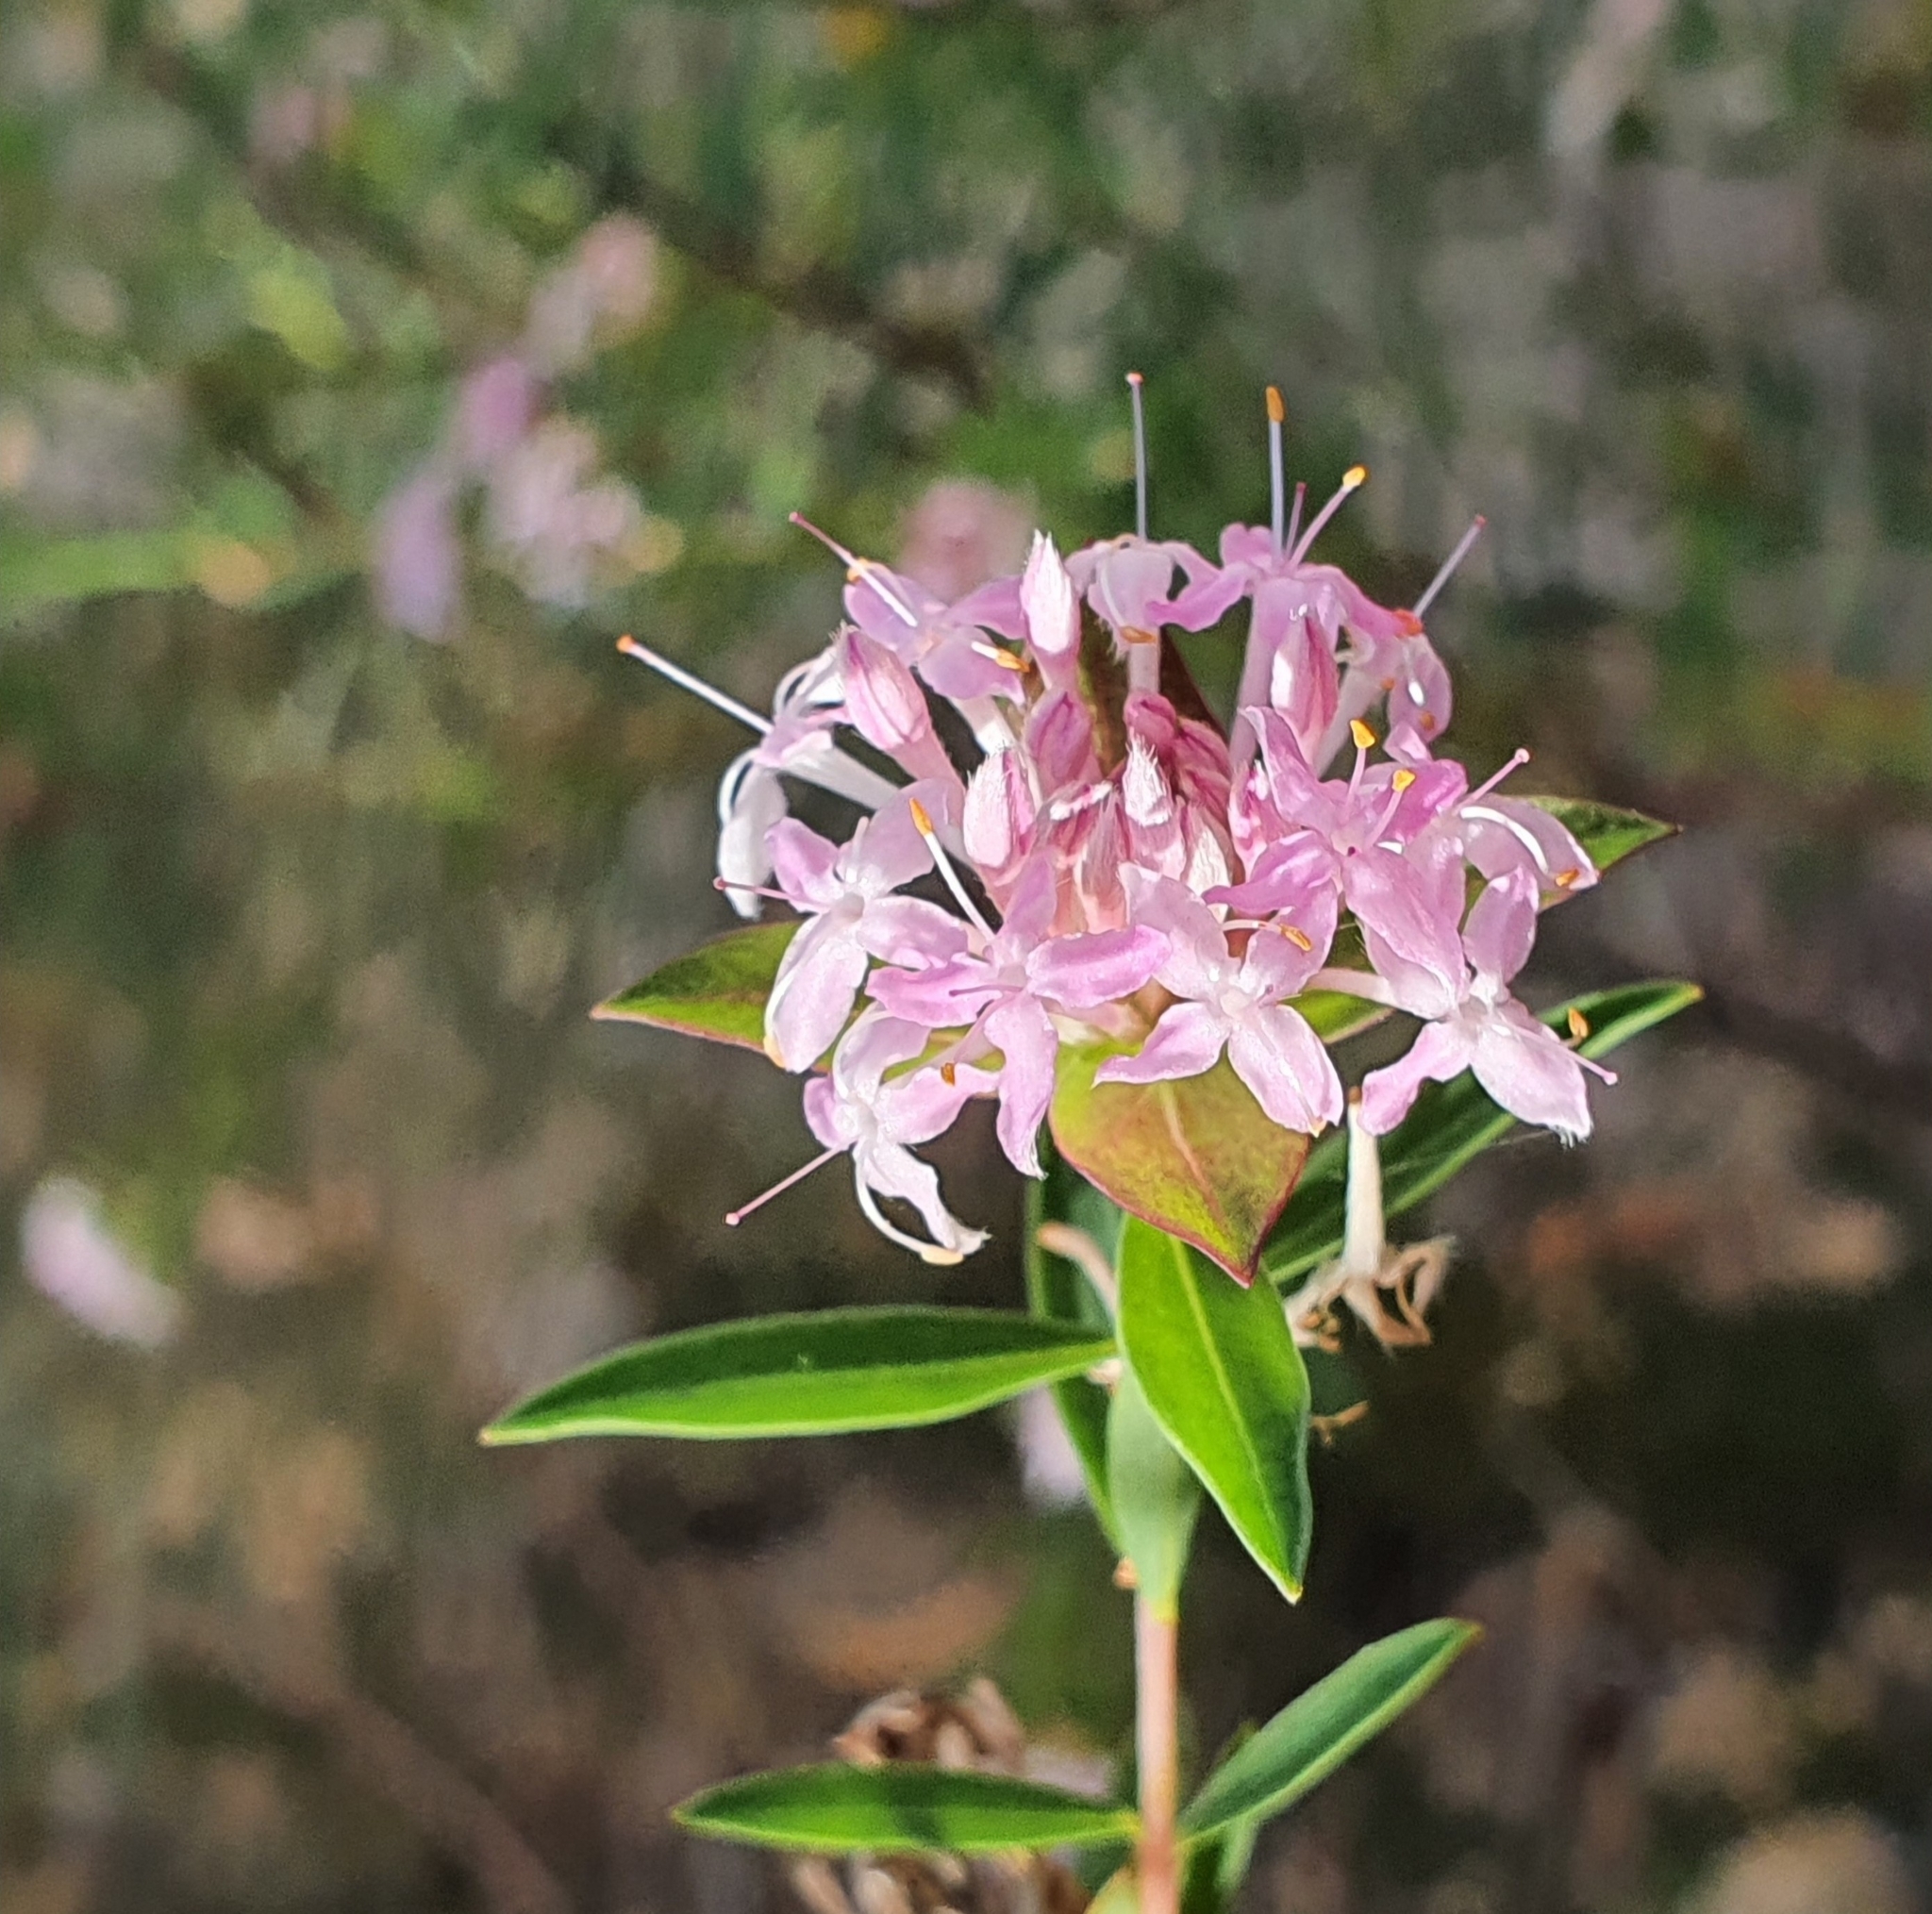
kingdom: Plantae
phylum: Tracheophyta
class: Magnoliopsida
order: Malvales
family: Thymelaeaceae
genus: Pimelea
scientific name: Pimelea linifolia
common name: Queen-of-the-bush
